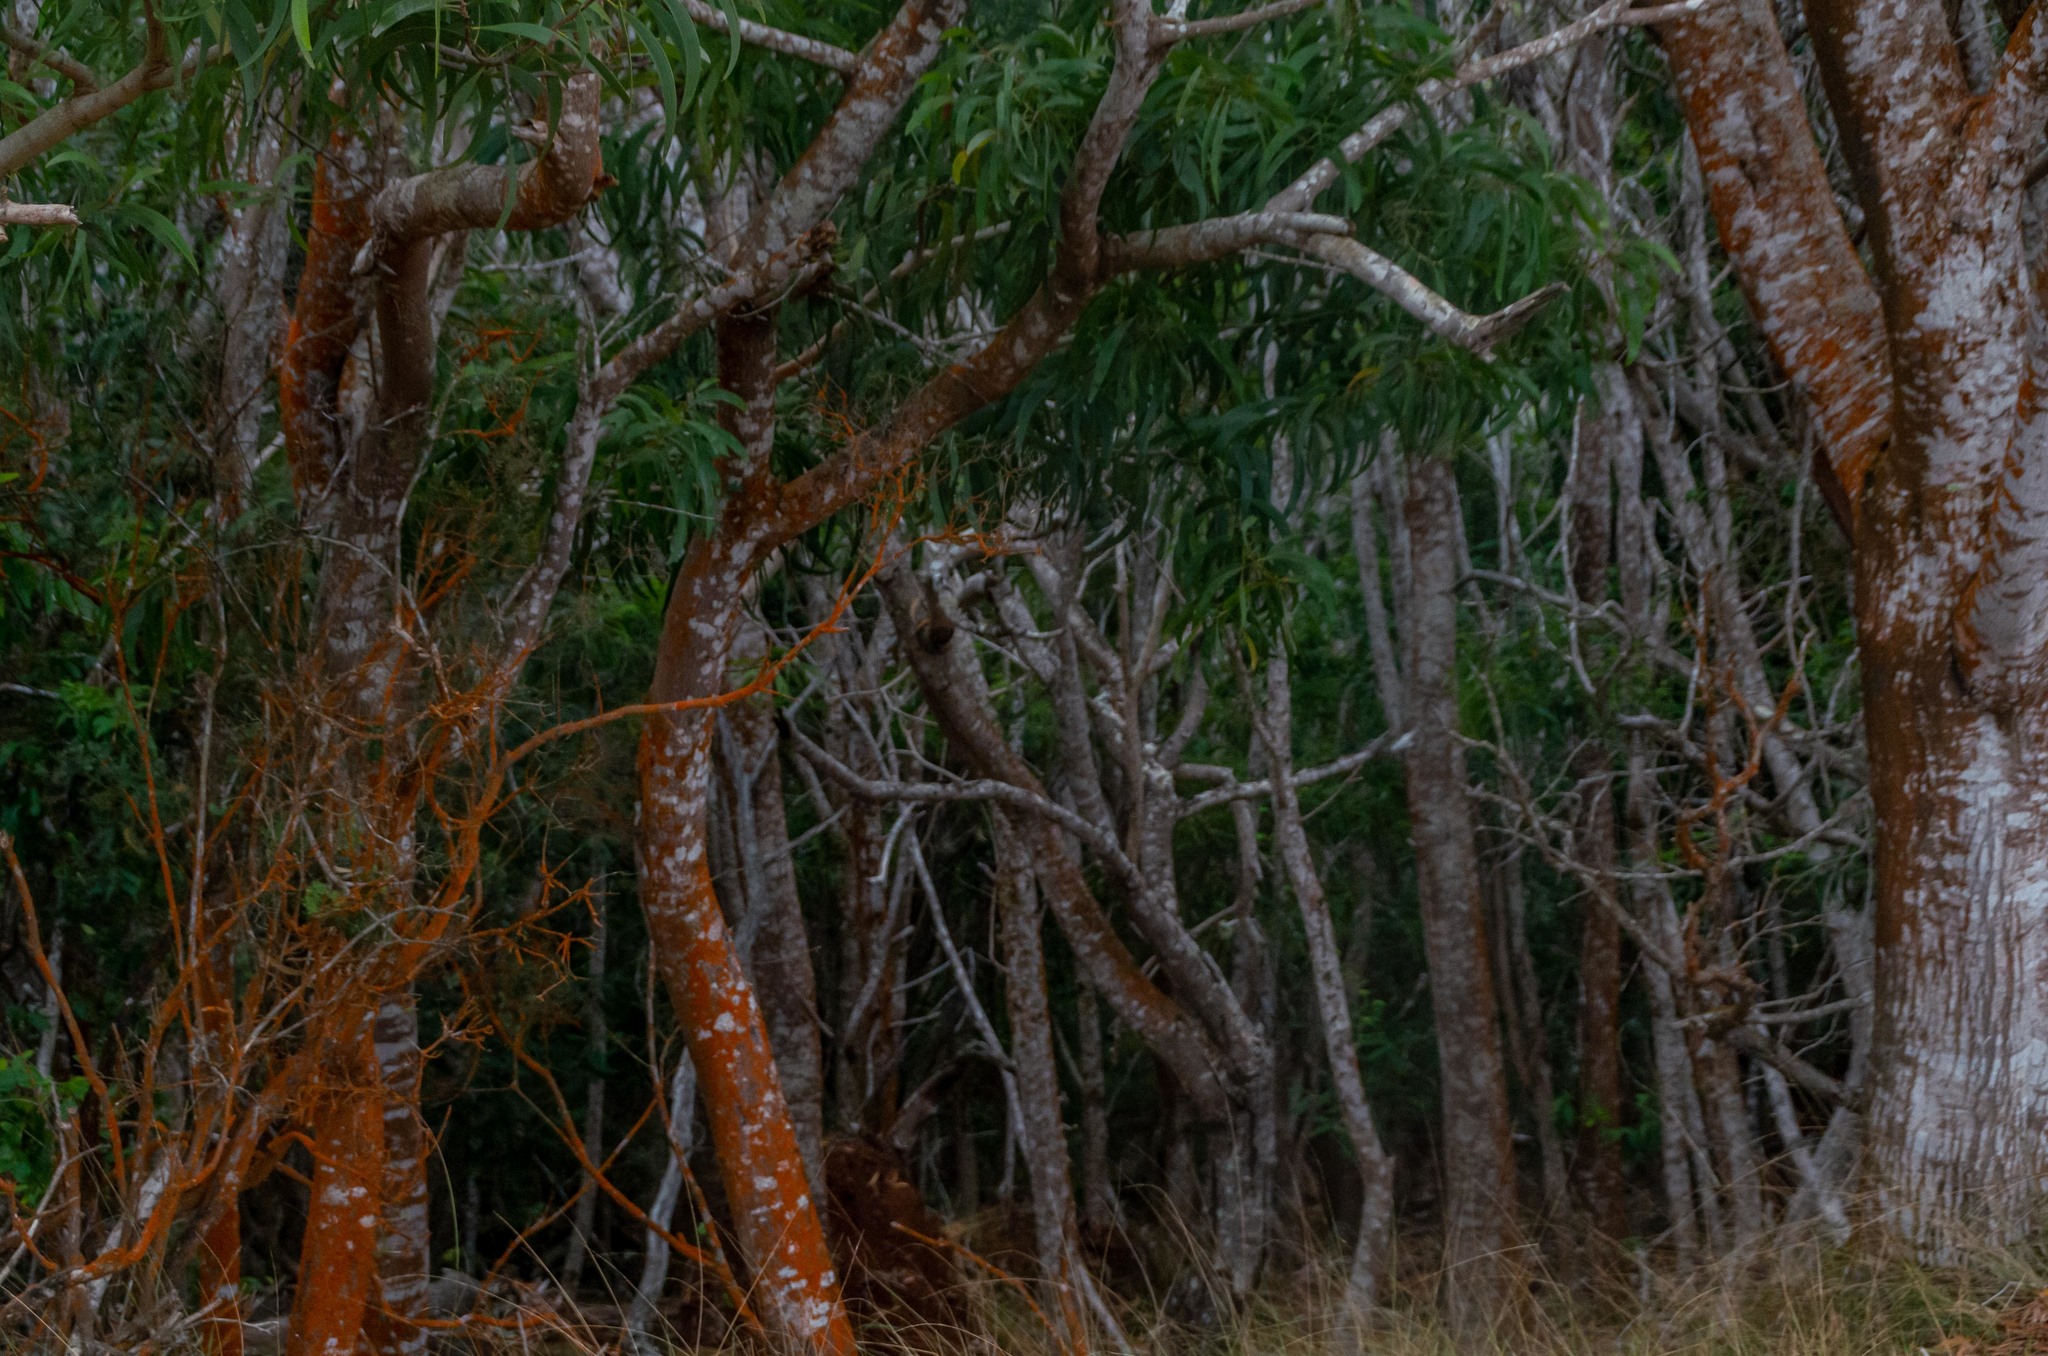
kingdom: Plantae
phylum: Tracheophyta
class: Magnoliopsida
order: Fabales
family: Fabaceae
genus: Acacia
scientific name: Acacia koa
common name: Gray koa
